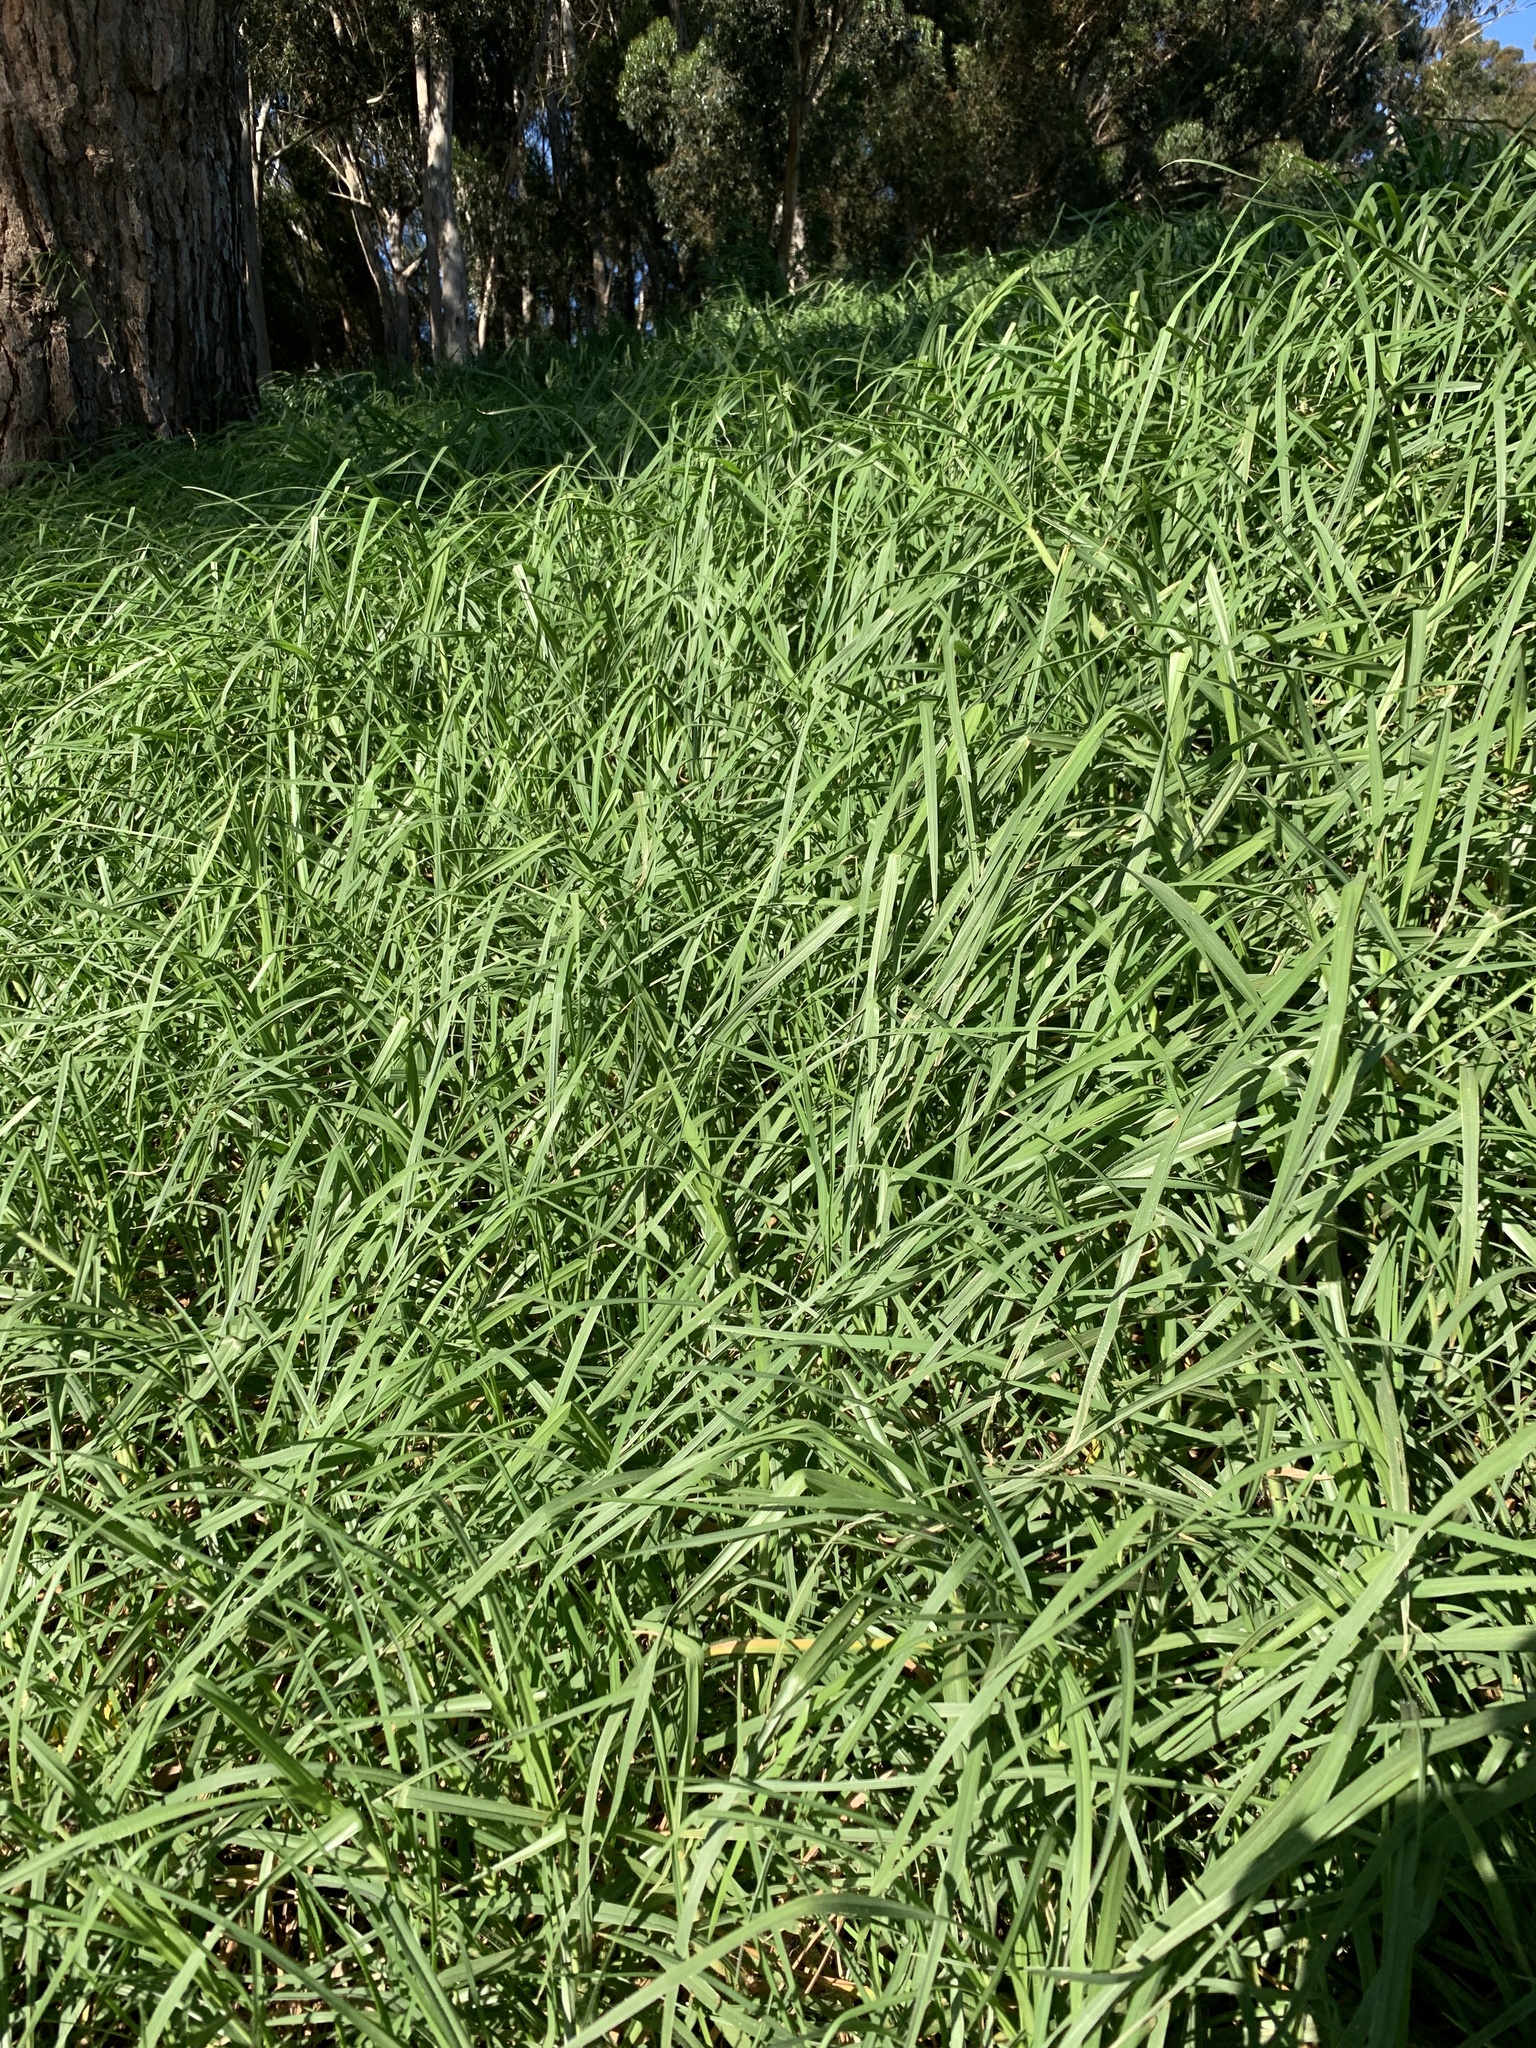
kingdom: Plantae
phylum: Tracheophyta
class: Liliopsida
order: Poales
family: Poaceae
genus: Cenchrus
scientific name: Cenchrus clandestinus
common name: Kikuyugrass
